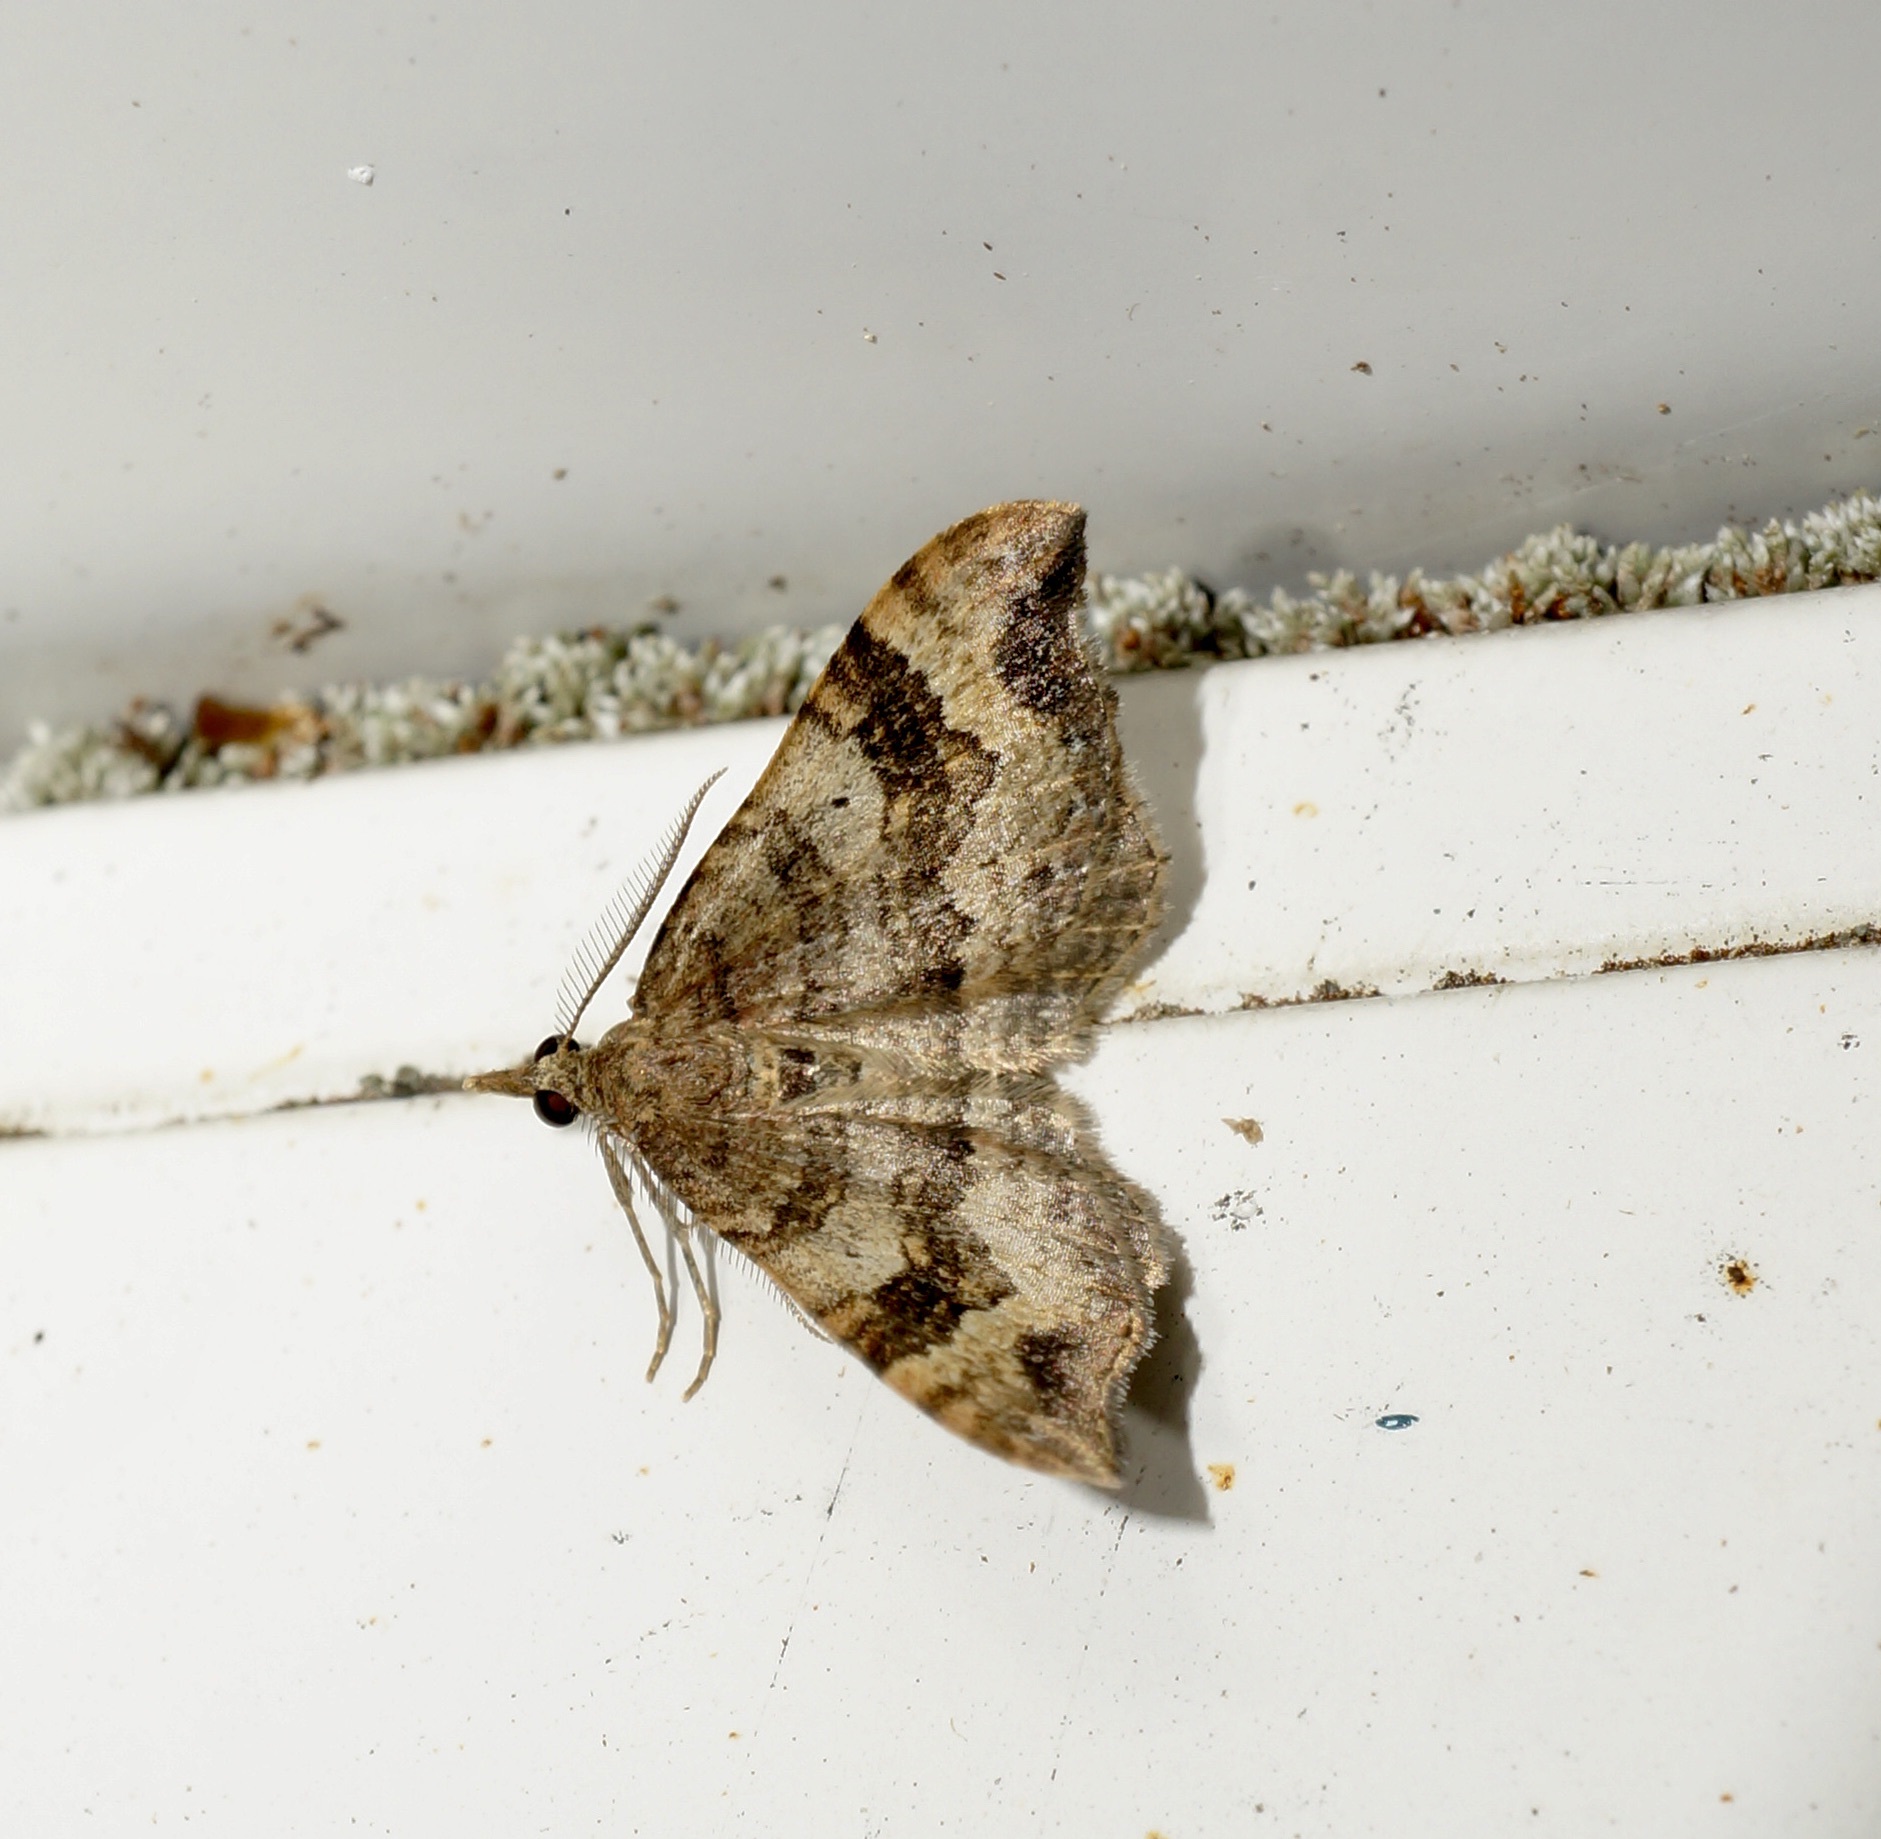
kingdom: Animalia
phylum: Arthropoda
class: Insecta
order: Lepidoptera
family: Geometridae
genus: Homodotis
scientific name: Homodotis megaspilata
